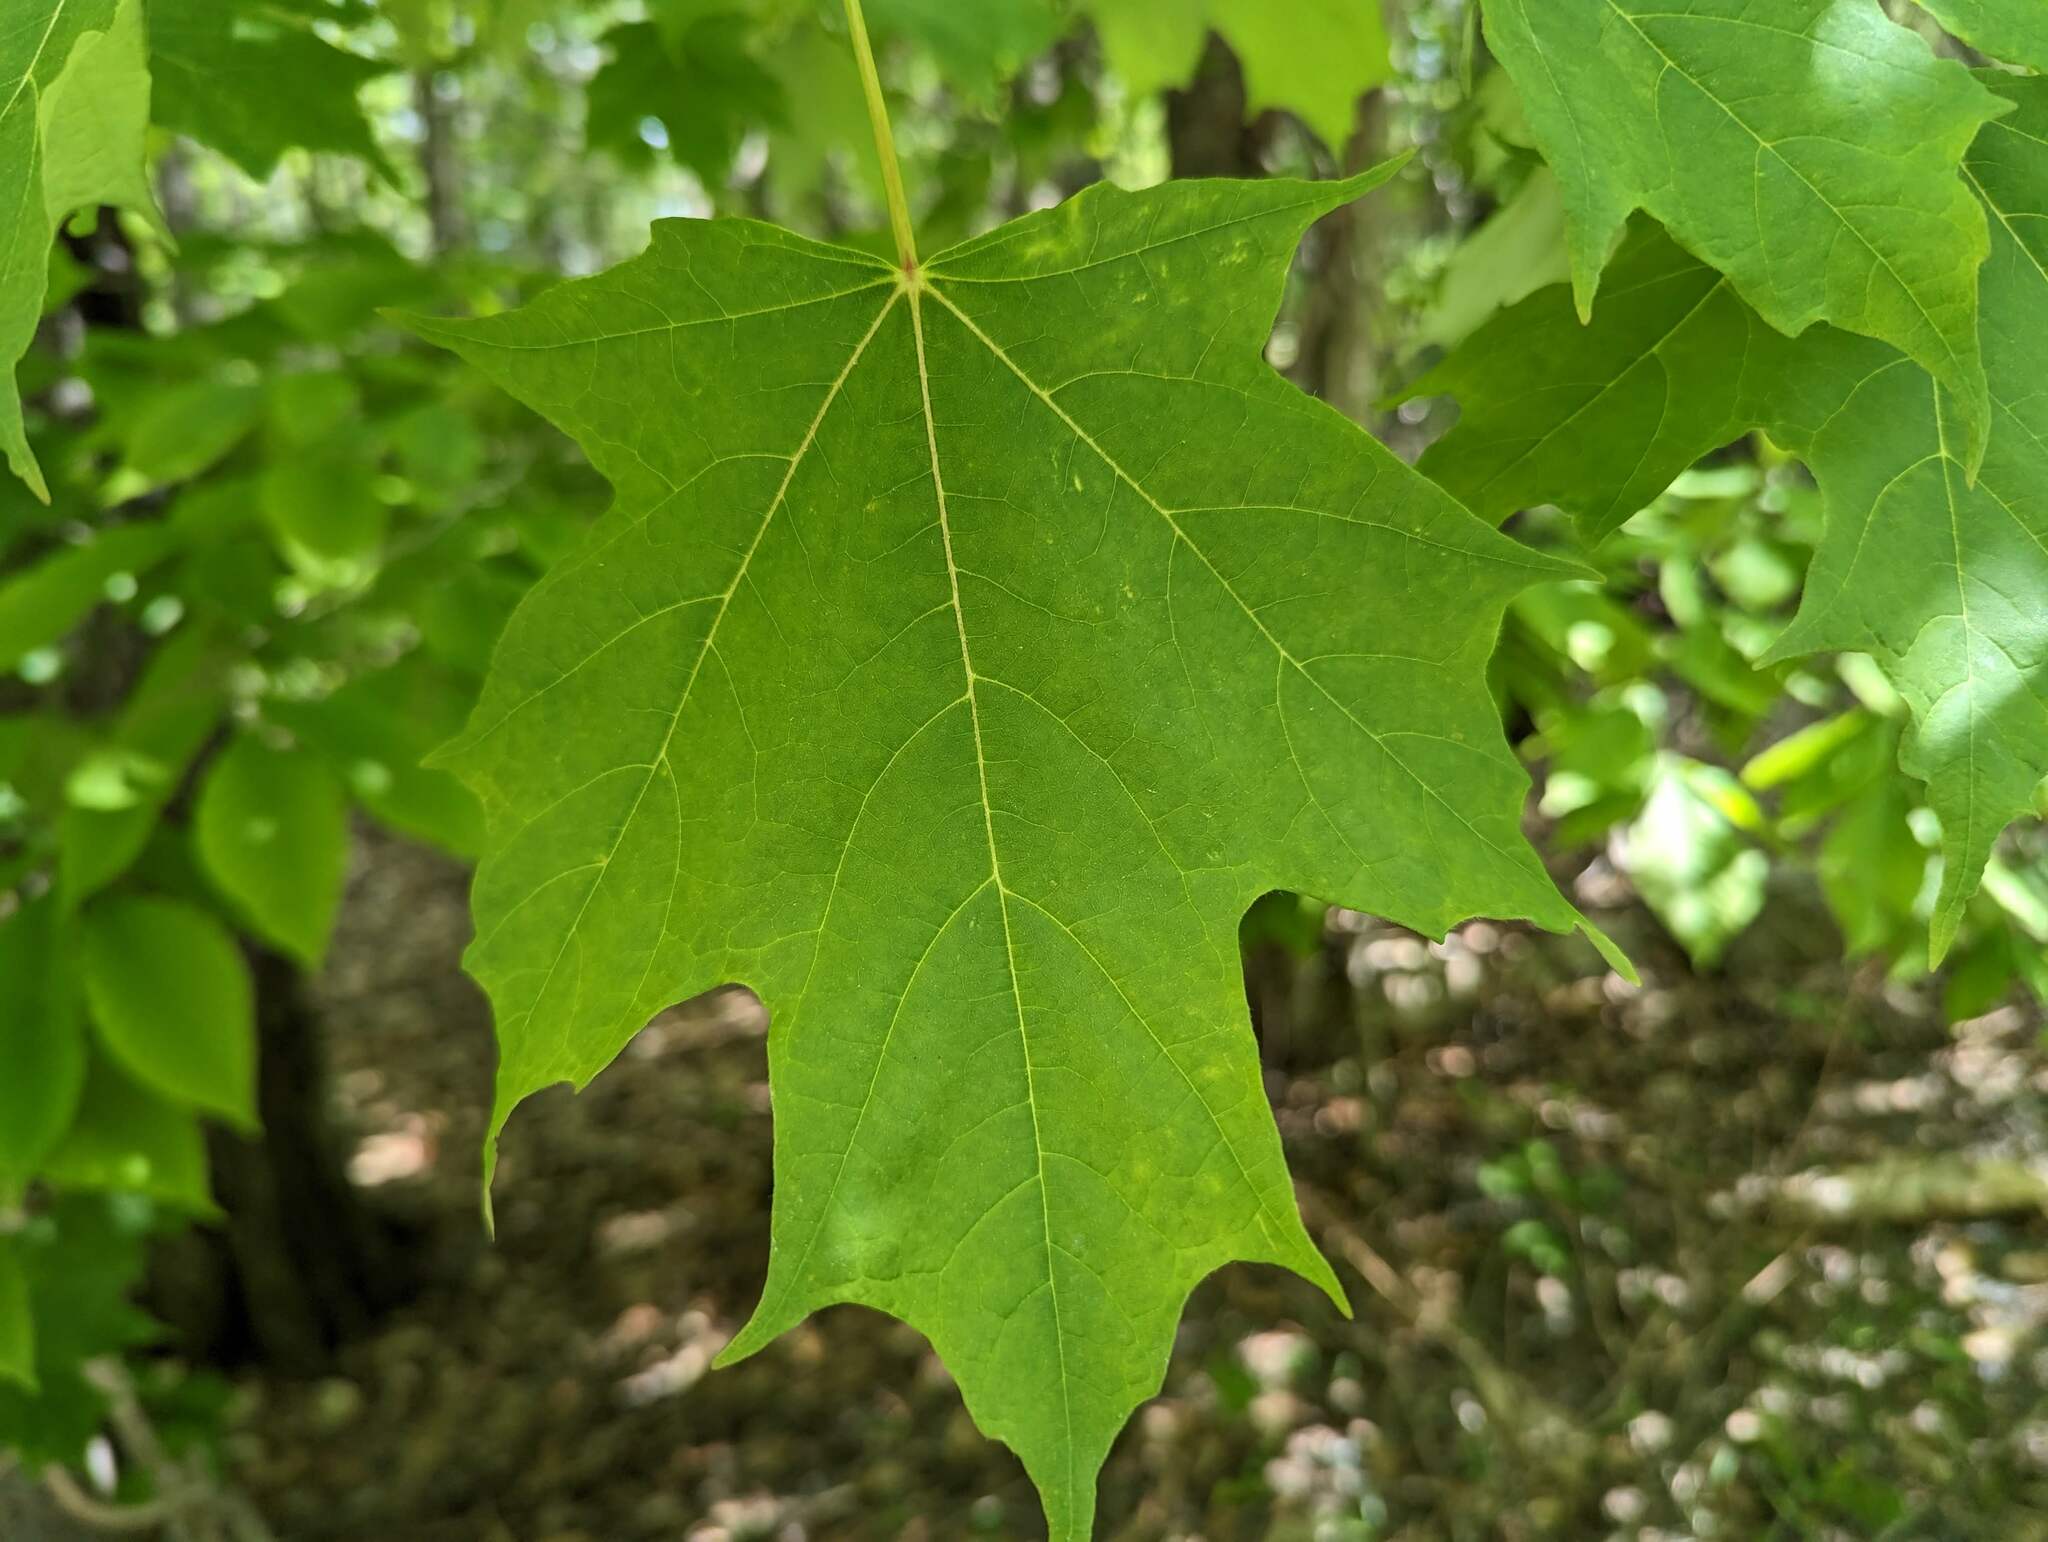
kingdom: Plantae
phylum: Tracheophyta
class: Magnoliopsida
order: Sapindales
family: Sapindaceae
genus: Acer
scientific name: Acer saccharum
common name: Sugar maple
